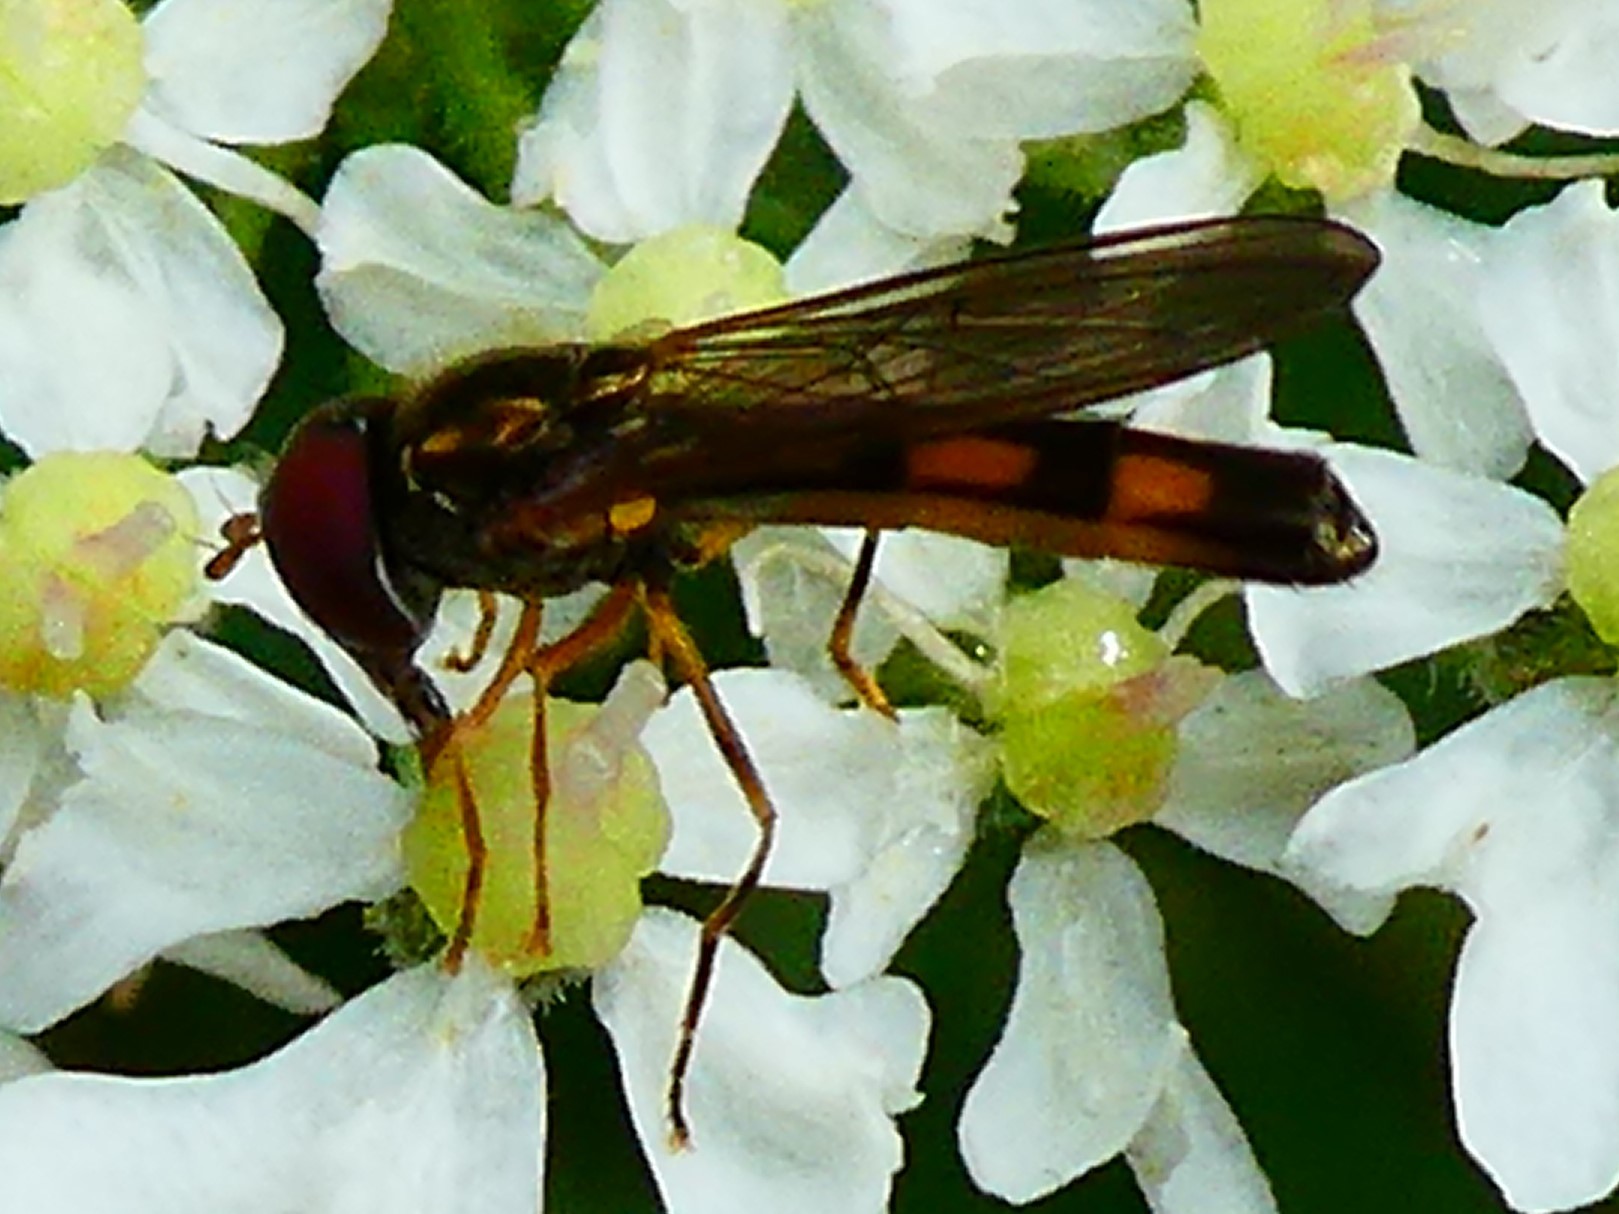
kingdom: Animalia
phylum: Arthropoda
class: Insecta
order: Diptera
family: Syrphidae
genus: Melanostoma
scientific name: Melanostoma scalare
